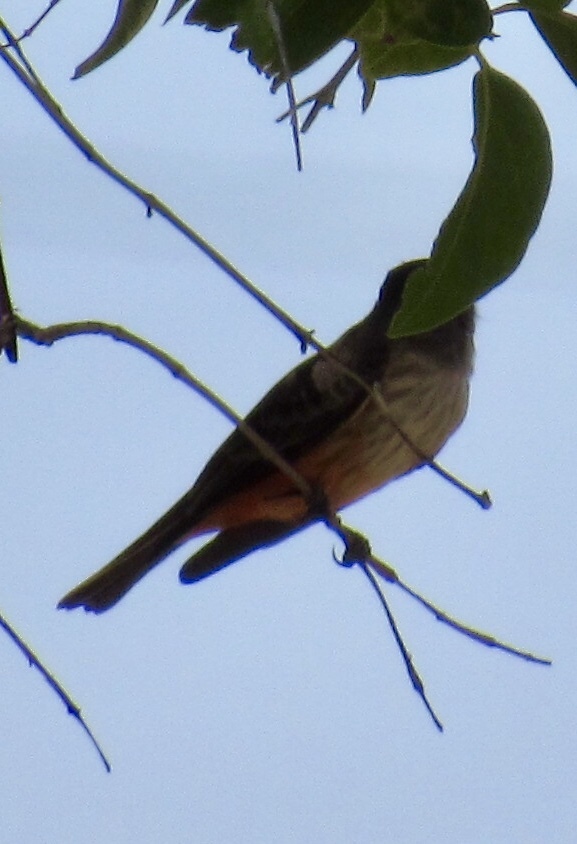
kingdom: Animalia
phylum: Chordata
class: Aves
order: Passeriformes
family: Tyrannidae
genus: Pyrocephalus
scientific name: Pyrocephalus rubinus
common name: Vermilion flycatcher
